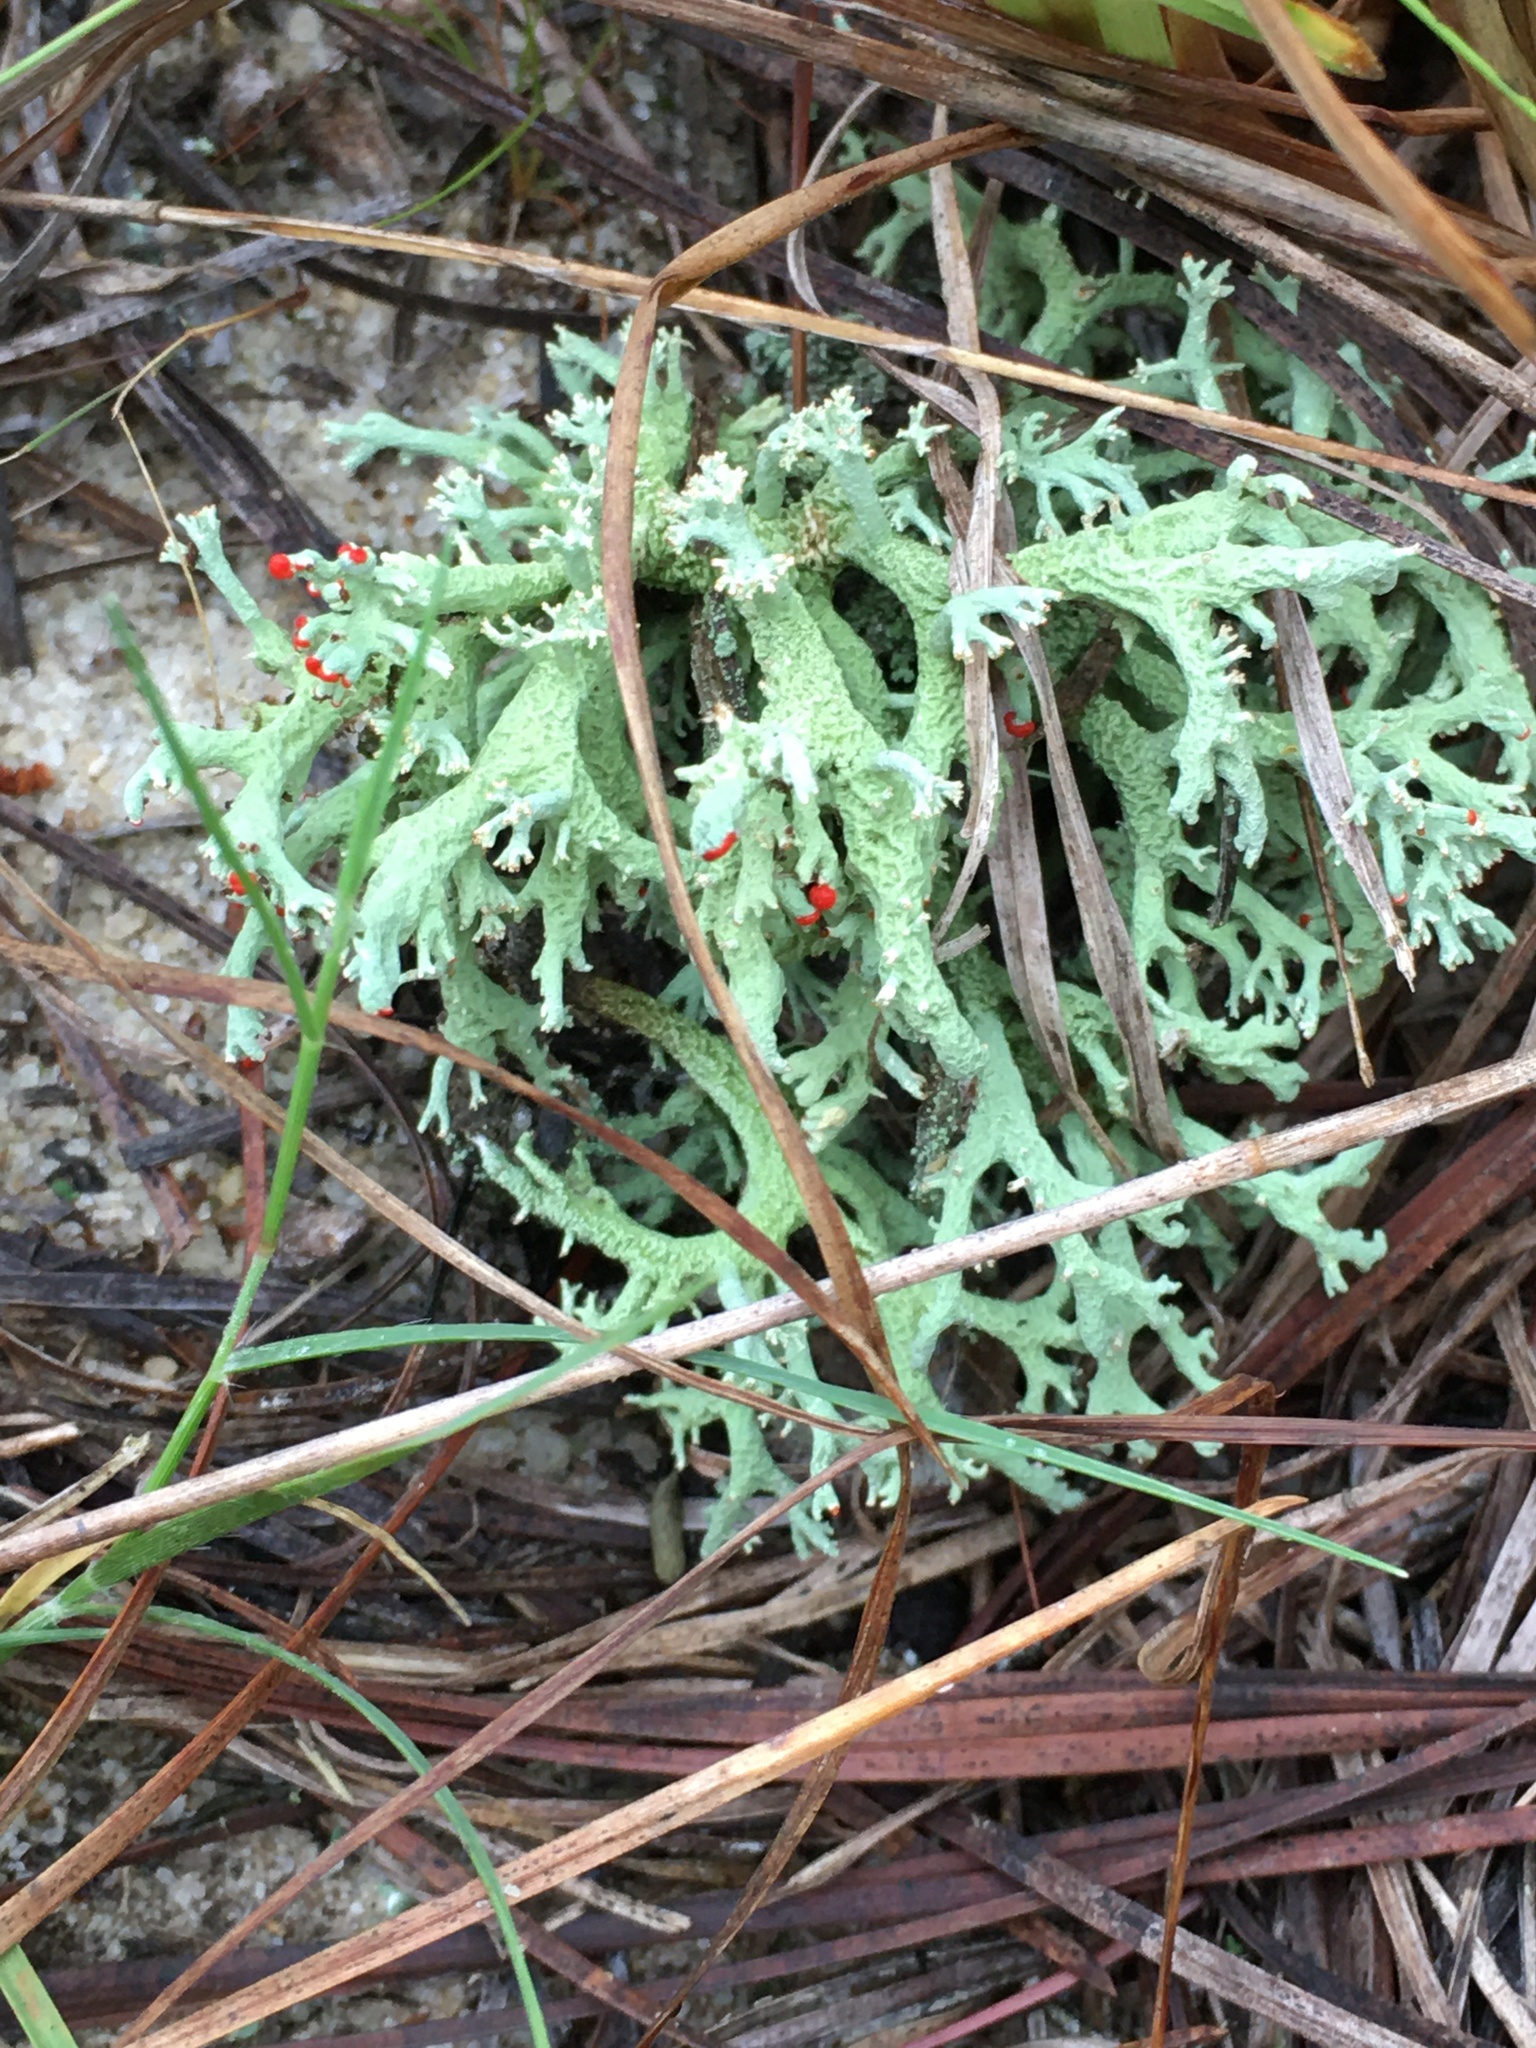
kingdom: Fungi
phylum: Ascomycota
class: Lecanoromycetes
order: Lecanorales
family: Cladoniaceae
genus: Cladonia
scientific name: Cladonia leporina
